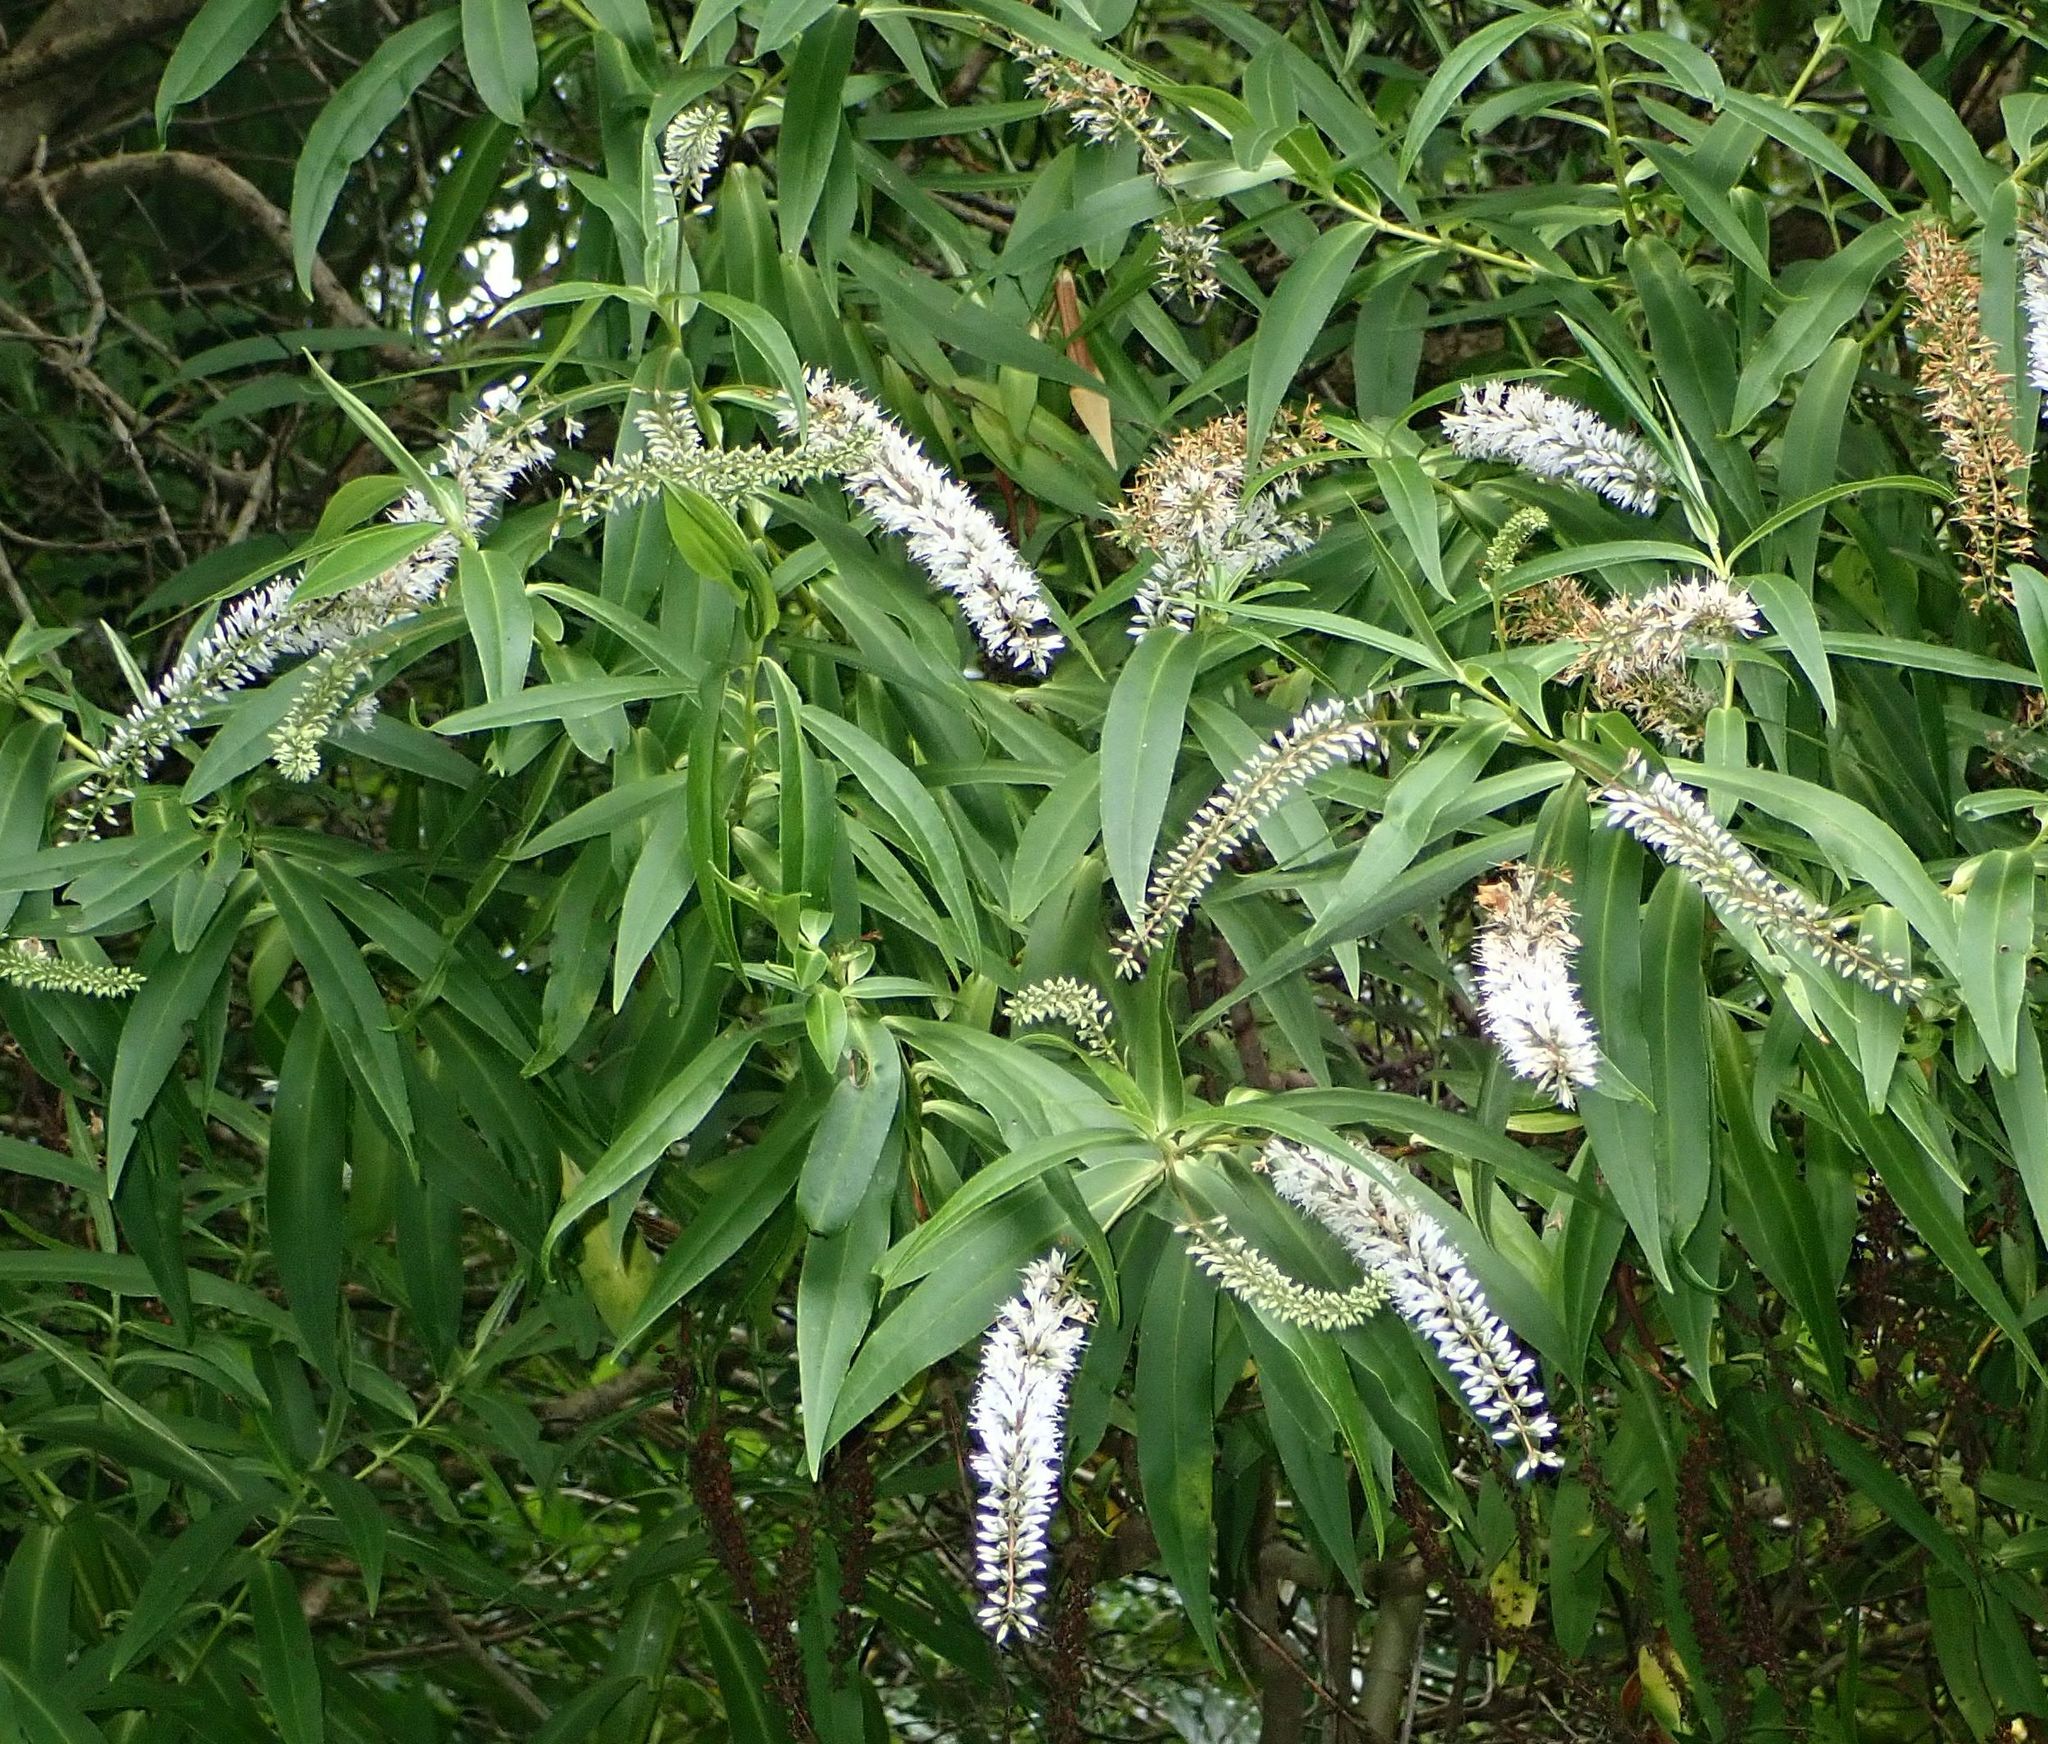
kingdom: Plantae
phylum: Tracheophyta
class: Magnoliopsida
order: Lamiales
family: Plantaginaceae
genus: Veronica
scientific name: Veronica salicifolia
